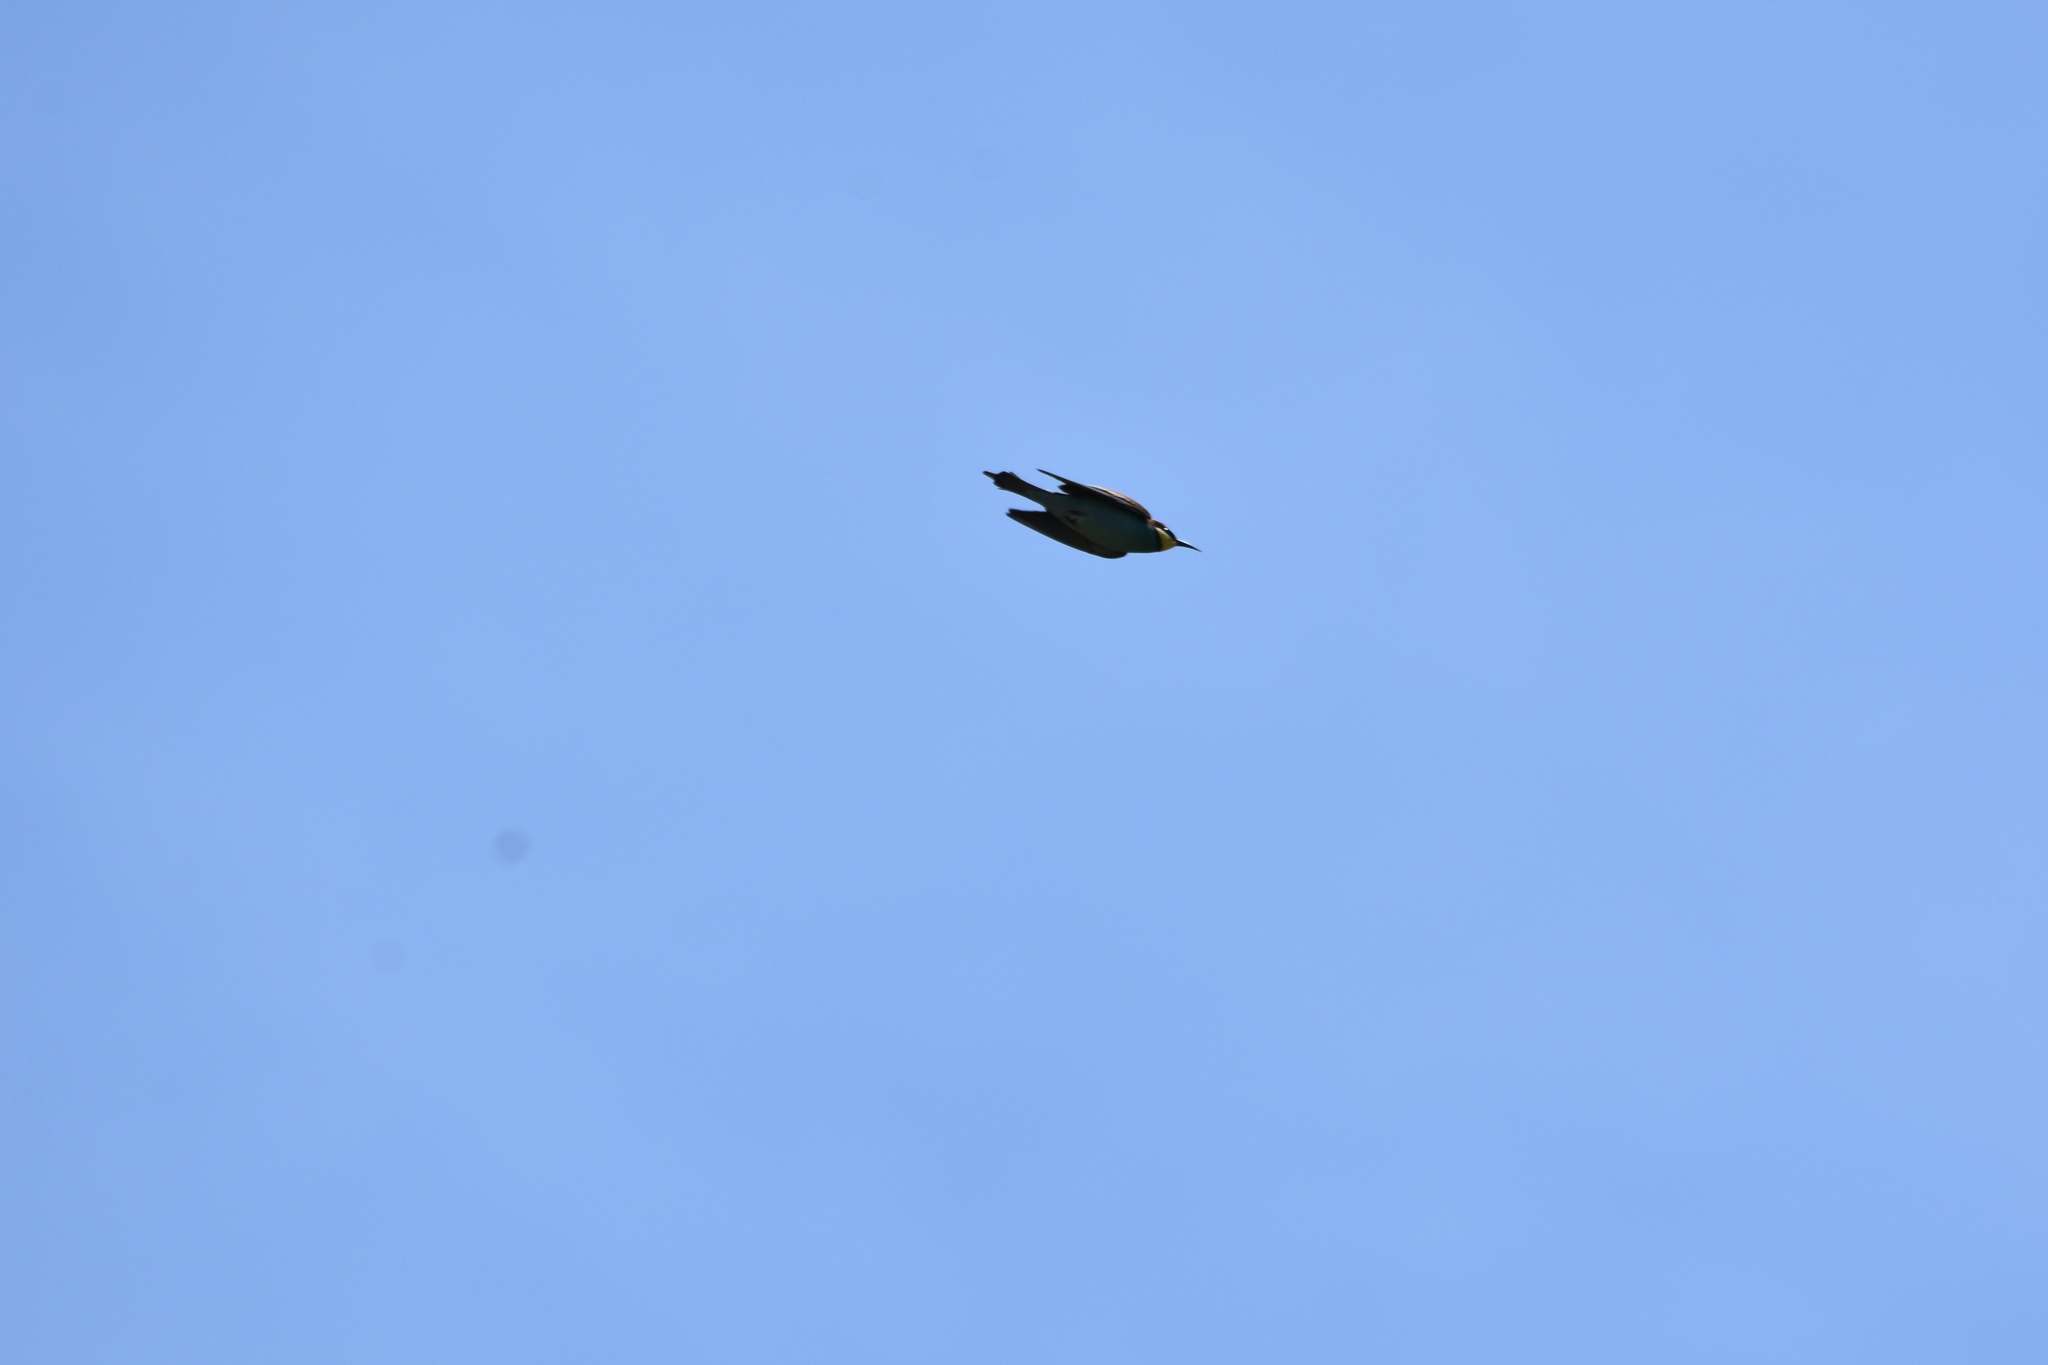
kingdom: Animalia
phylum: Chordata
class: Aves
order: Coraciiformes
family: Meropidae
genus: Merops
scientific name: Merops apiaster
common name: European bee-eater
